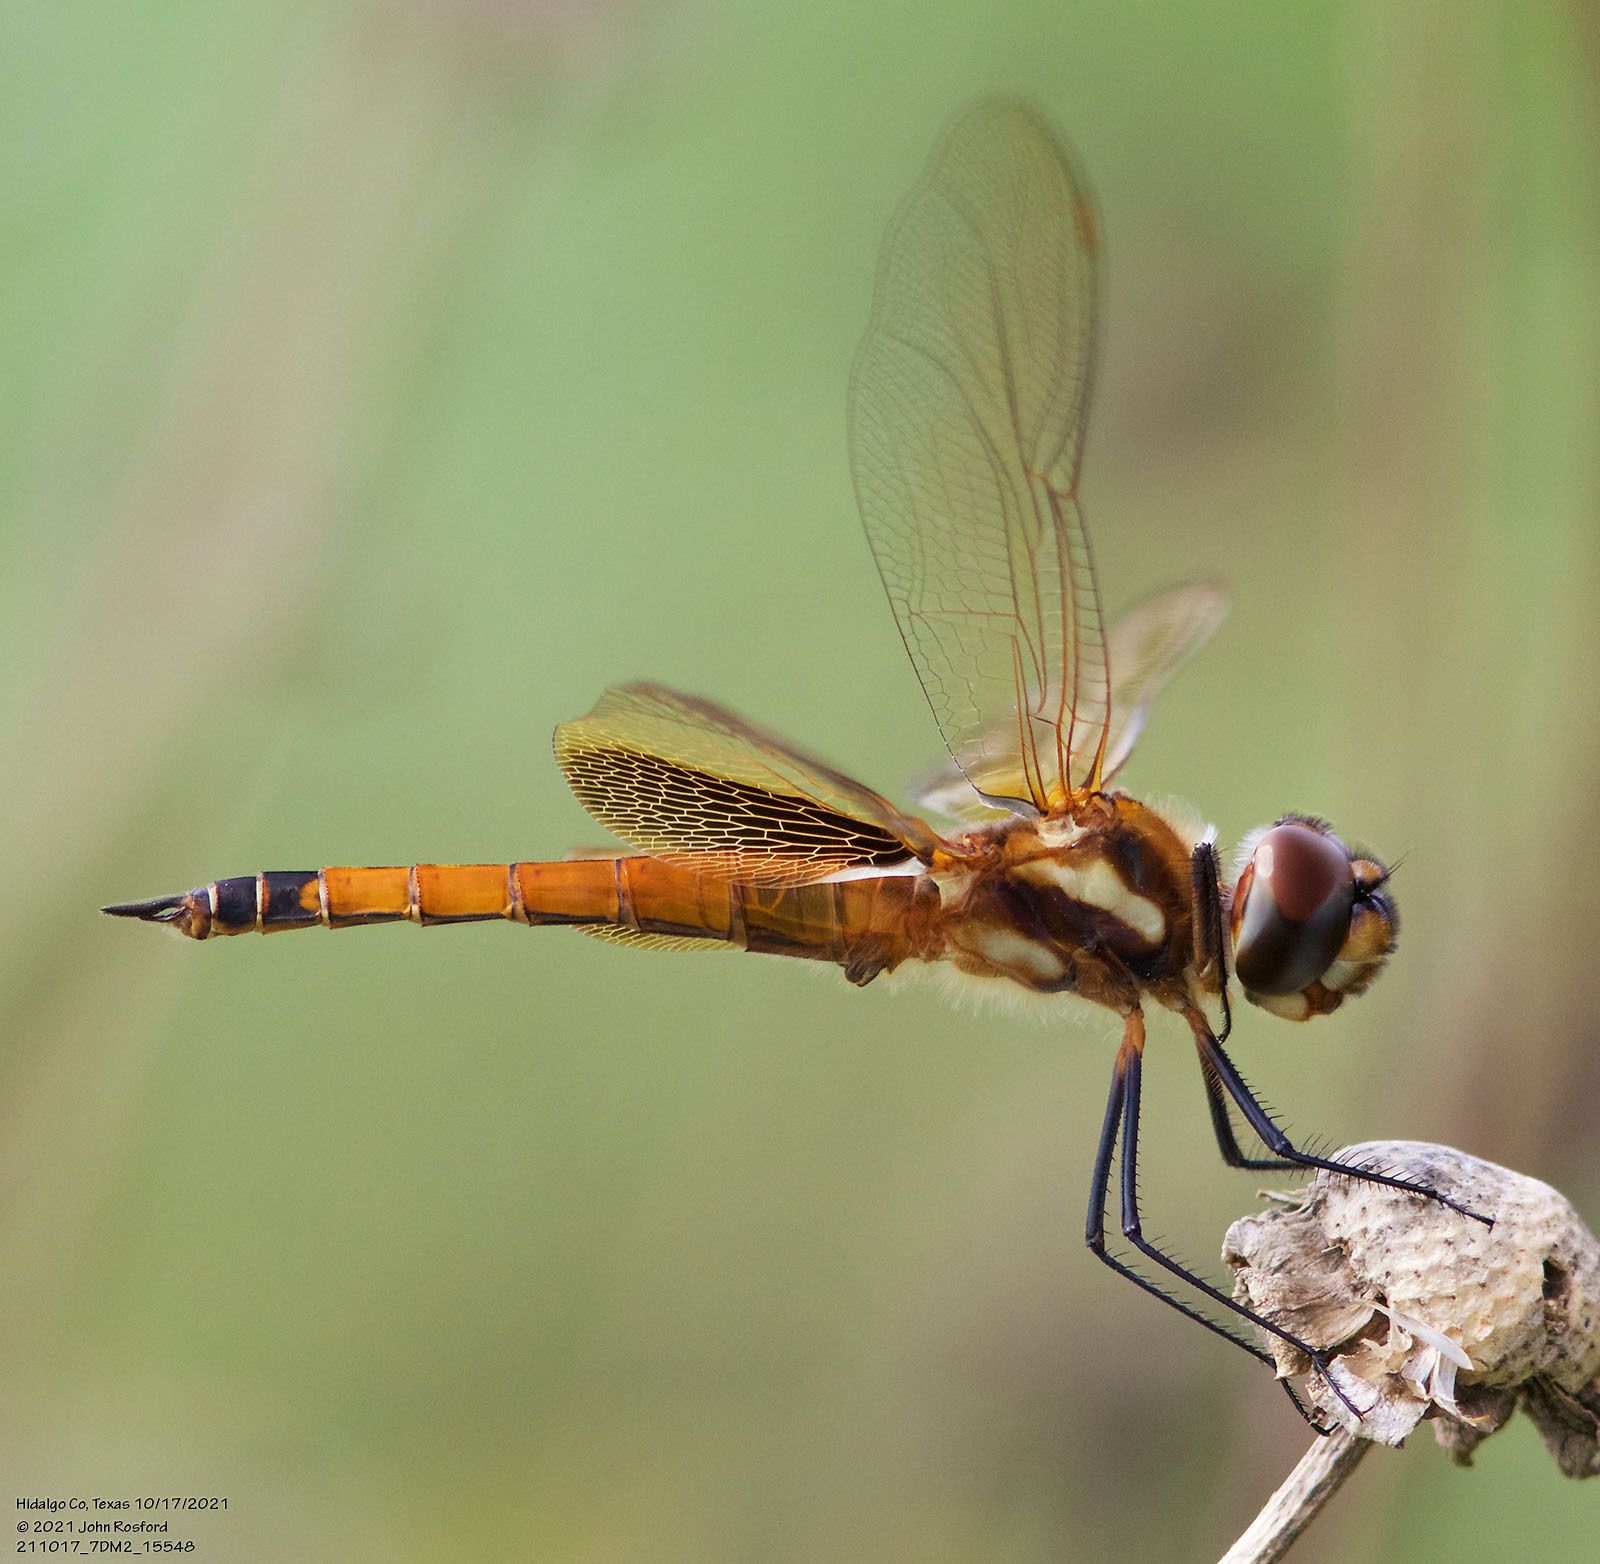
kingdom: Animalia
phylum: Arthropoda
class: Insecta
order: Odonata
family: Libellulidae
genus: Tramea
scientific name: Tramea darwini
